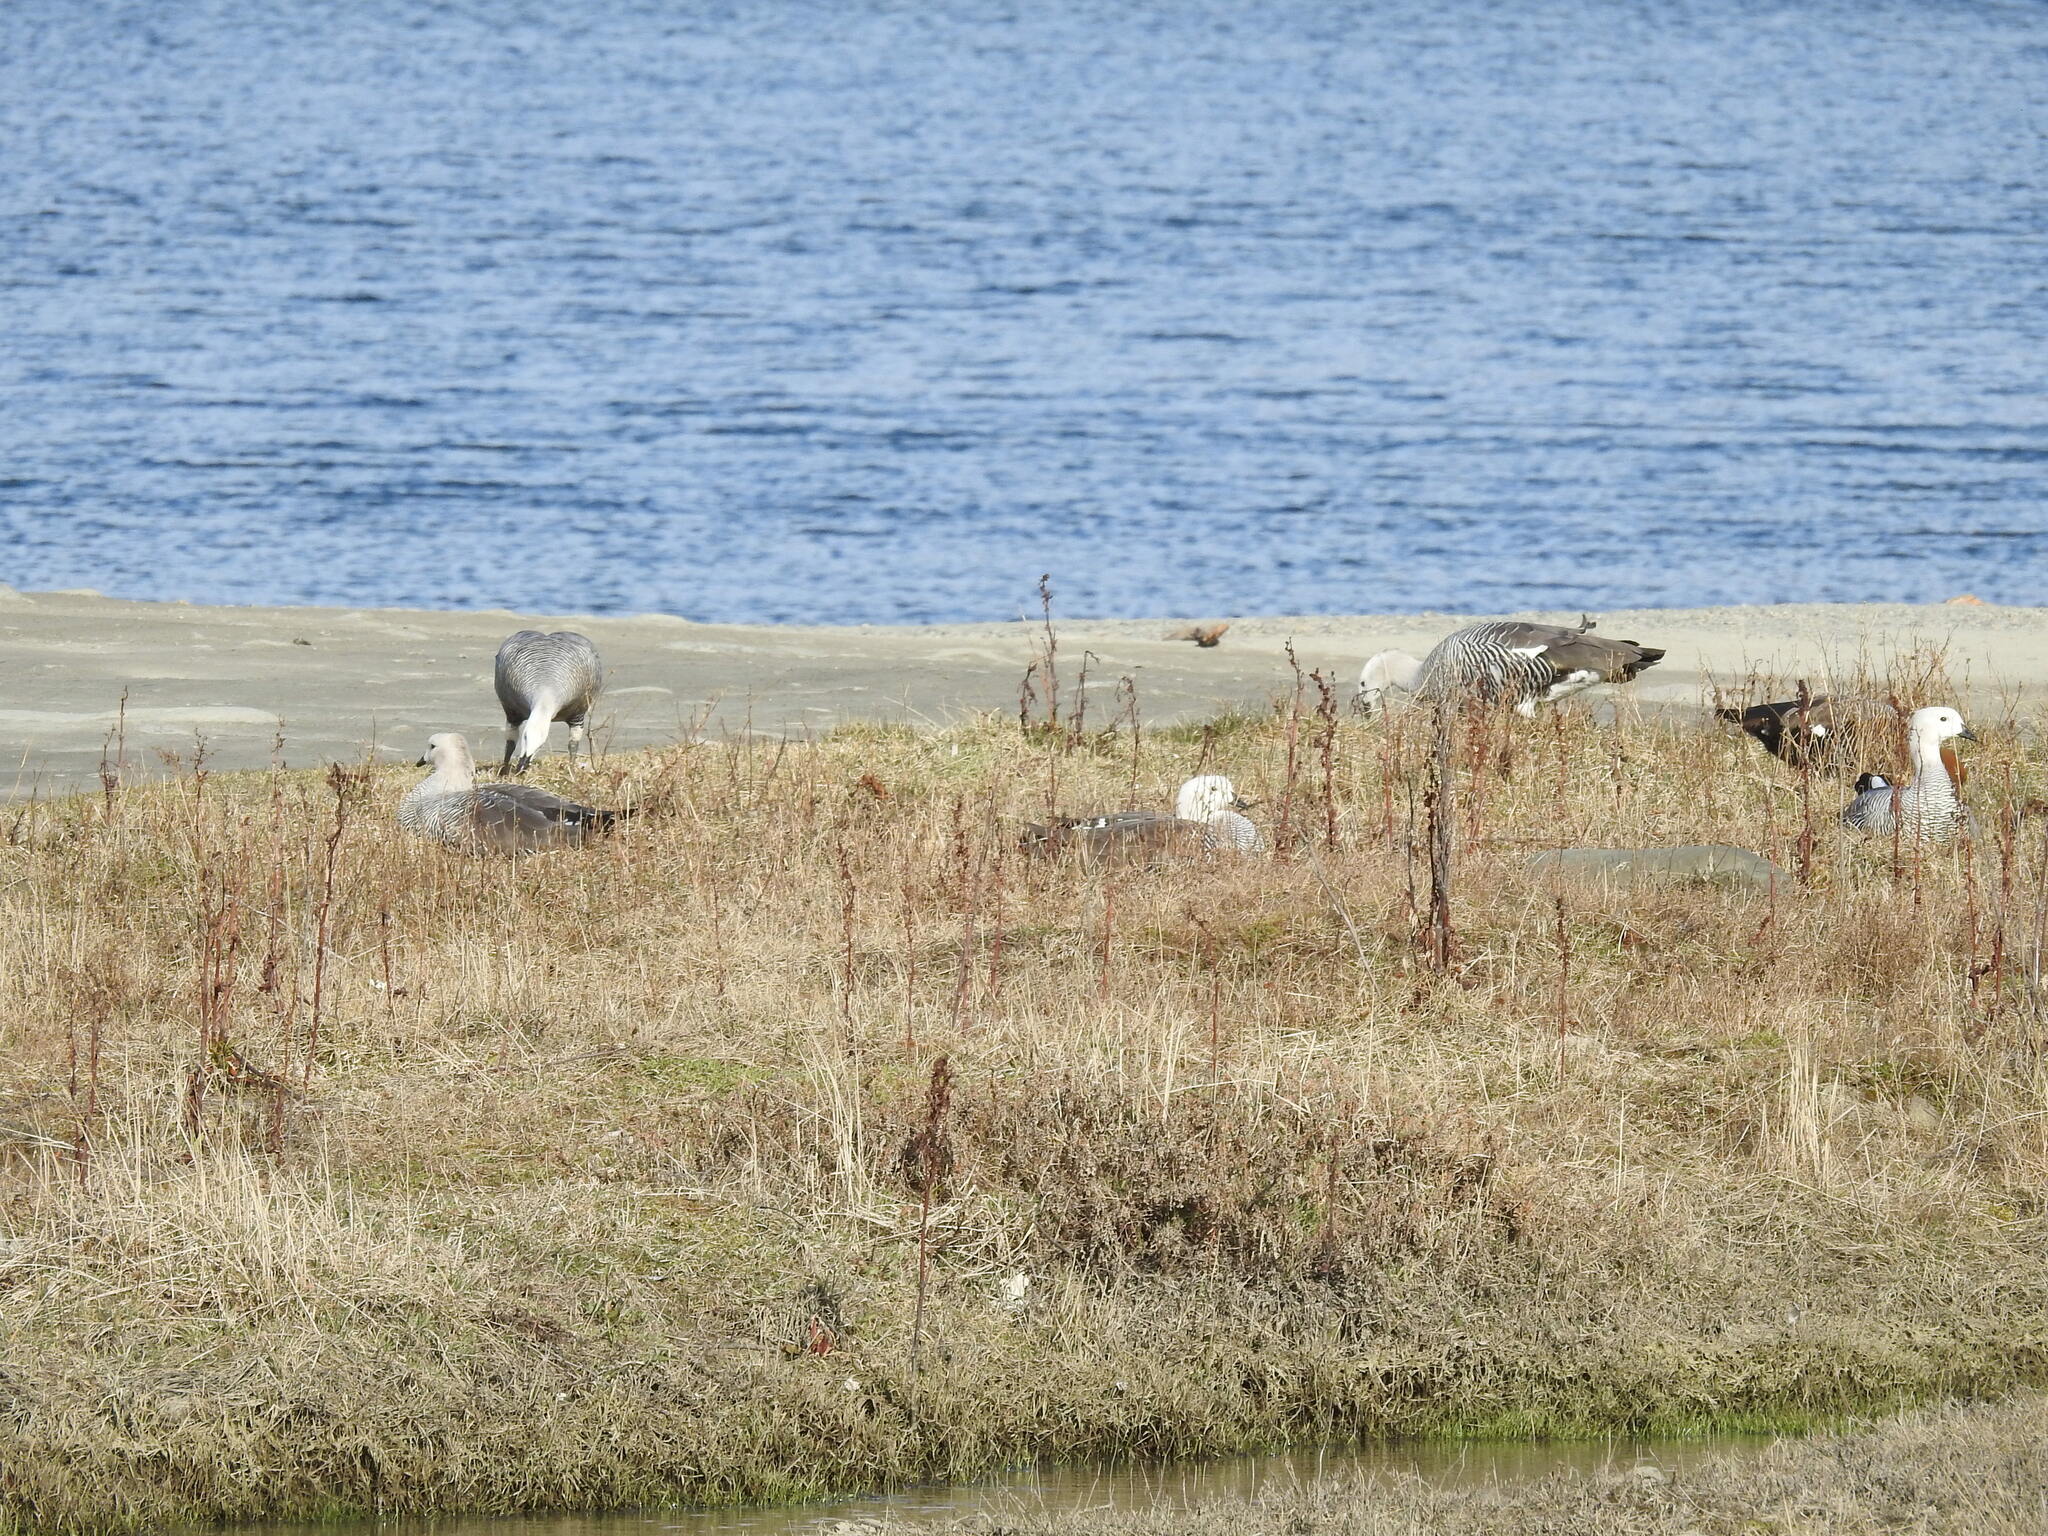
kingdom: Animalia
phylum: Chordata
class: Aves
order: Anseriformes
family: Anatidae
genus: Chloephaga
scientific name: Chloephaga picta
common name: Upland goose
